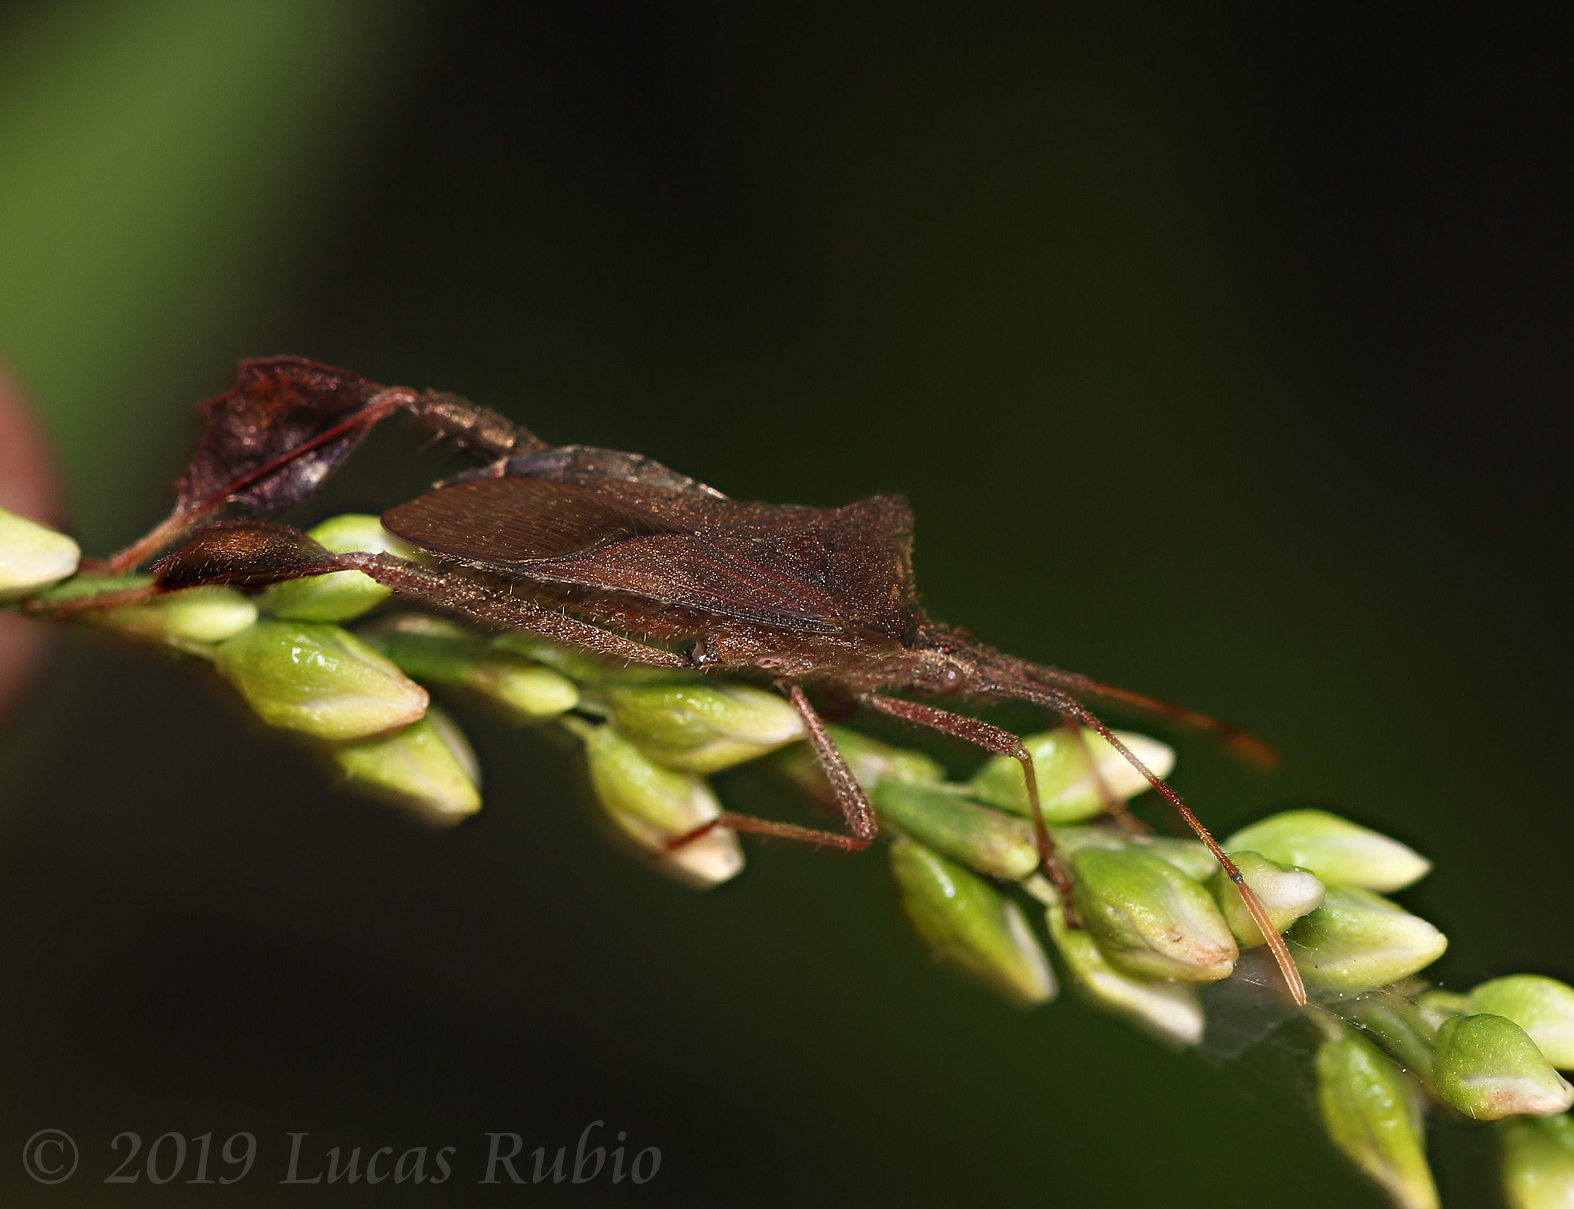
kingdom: Animalia
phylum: Arthropoda
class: Insecta
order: Hemiptera
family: Coreidae
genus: Leptoglossus
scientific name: Leptoglossus concaviusculus
